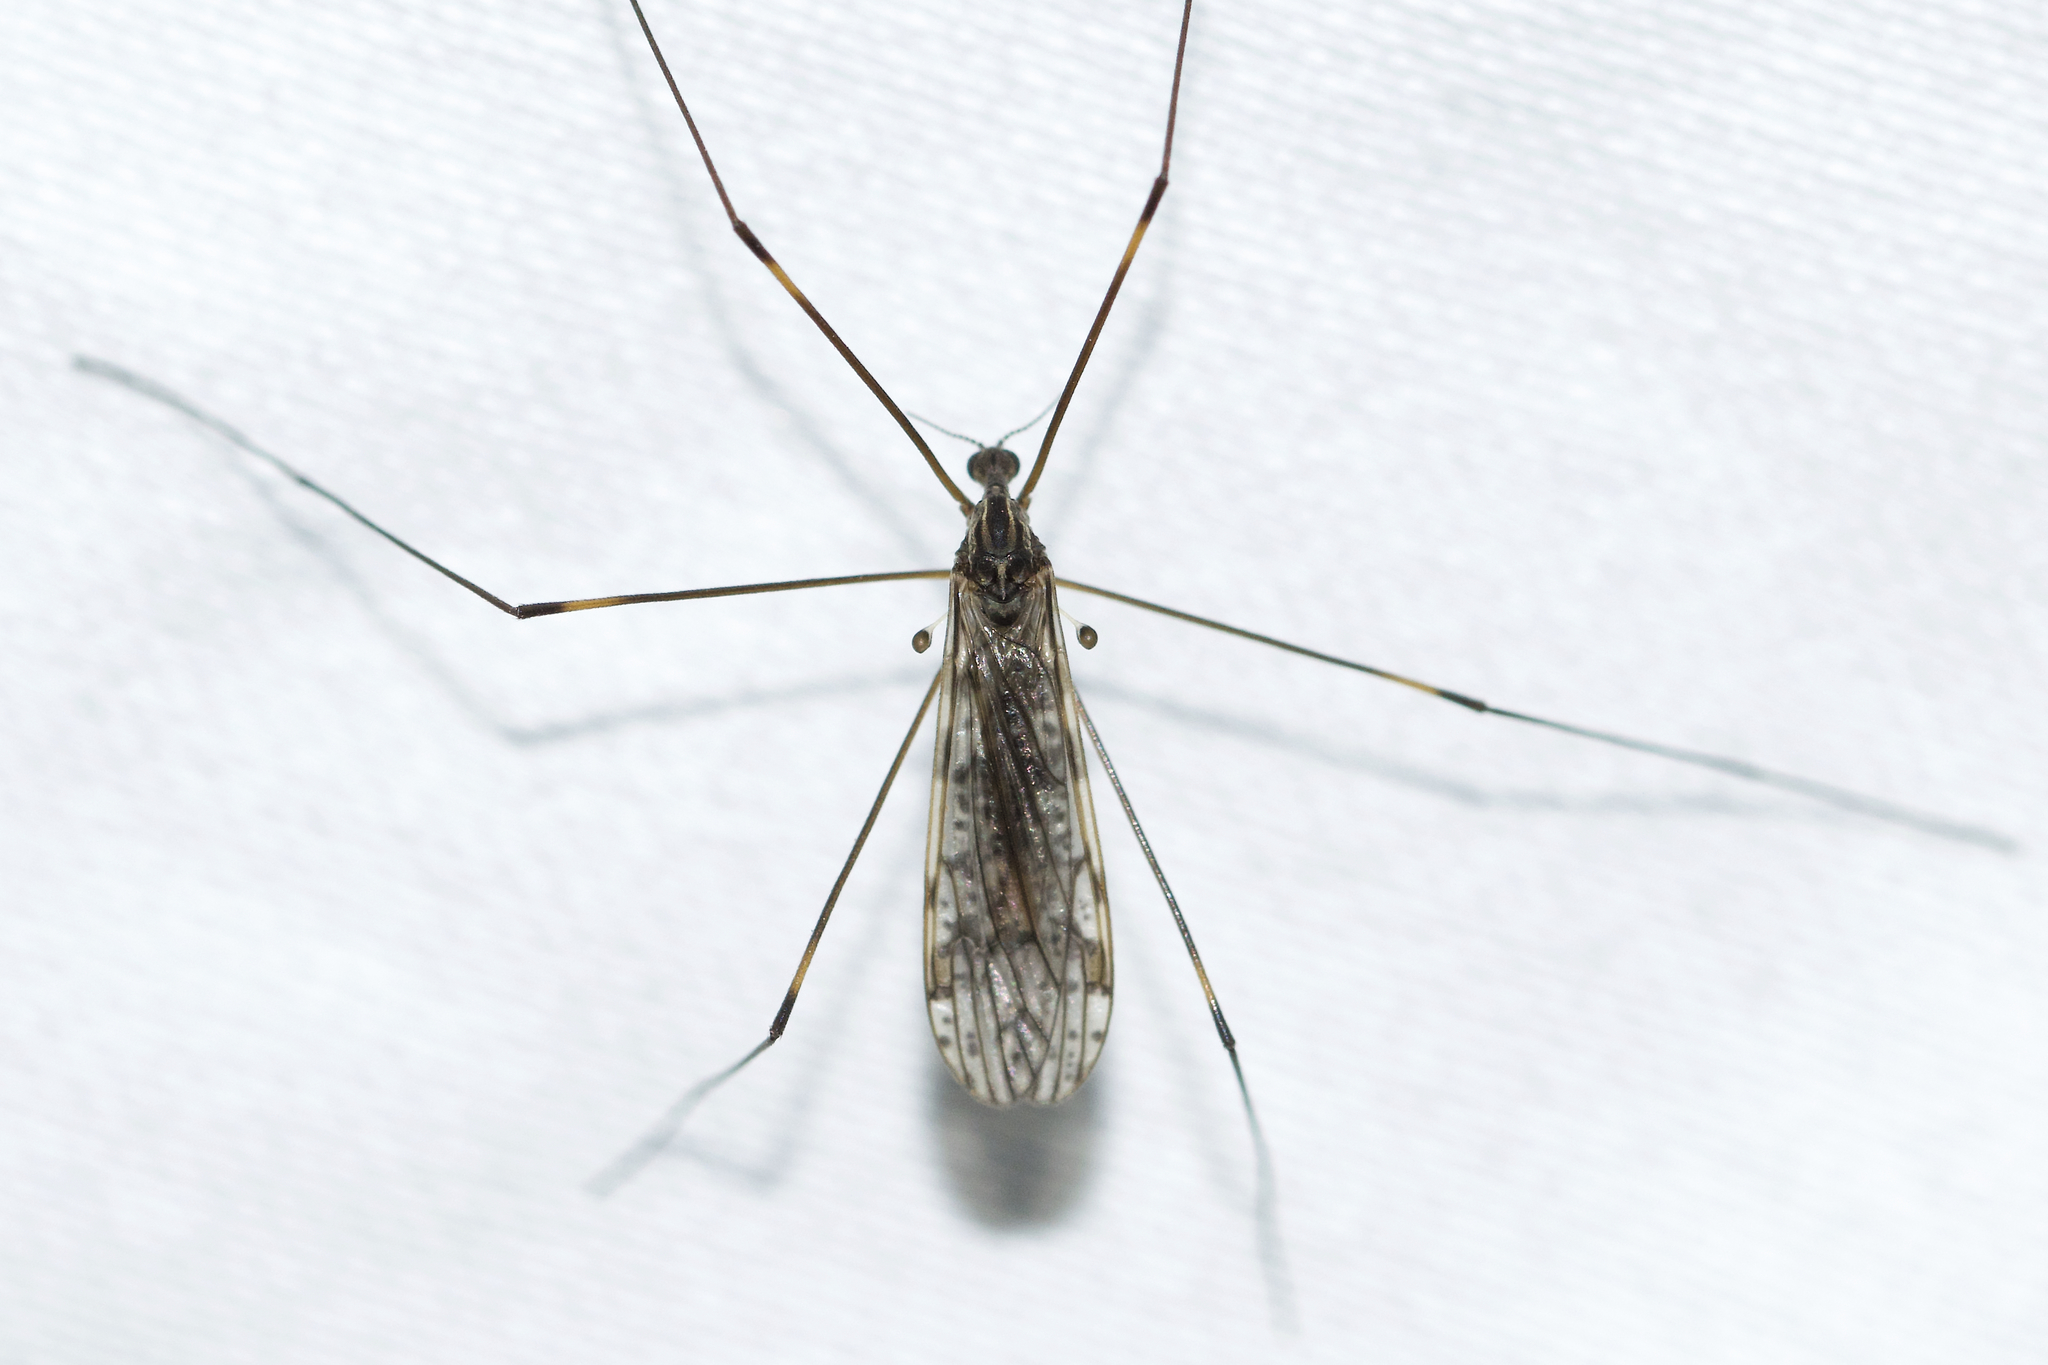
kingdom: Animalia
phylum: Arthropoda
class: Insecta
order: Diptera
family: Limoniidae
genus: Dicranomyia
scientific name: Dicranomyia simulans
